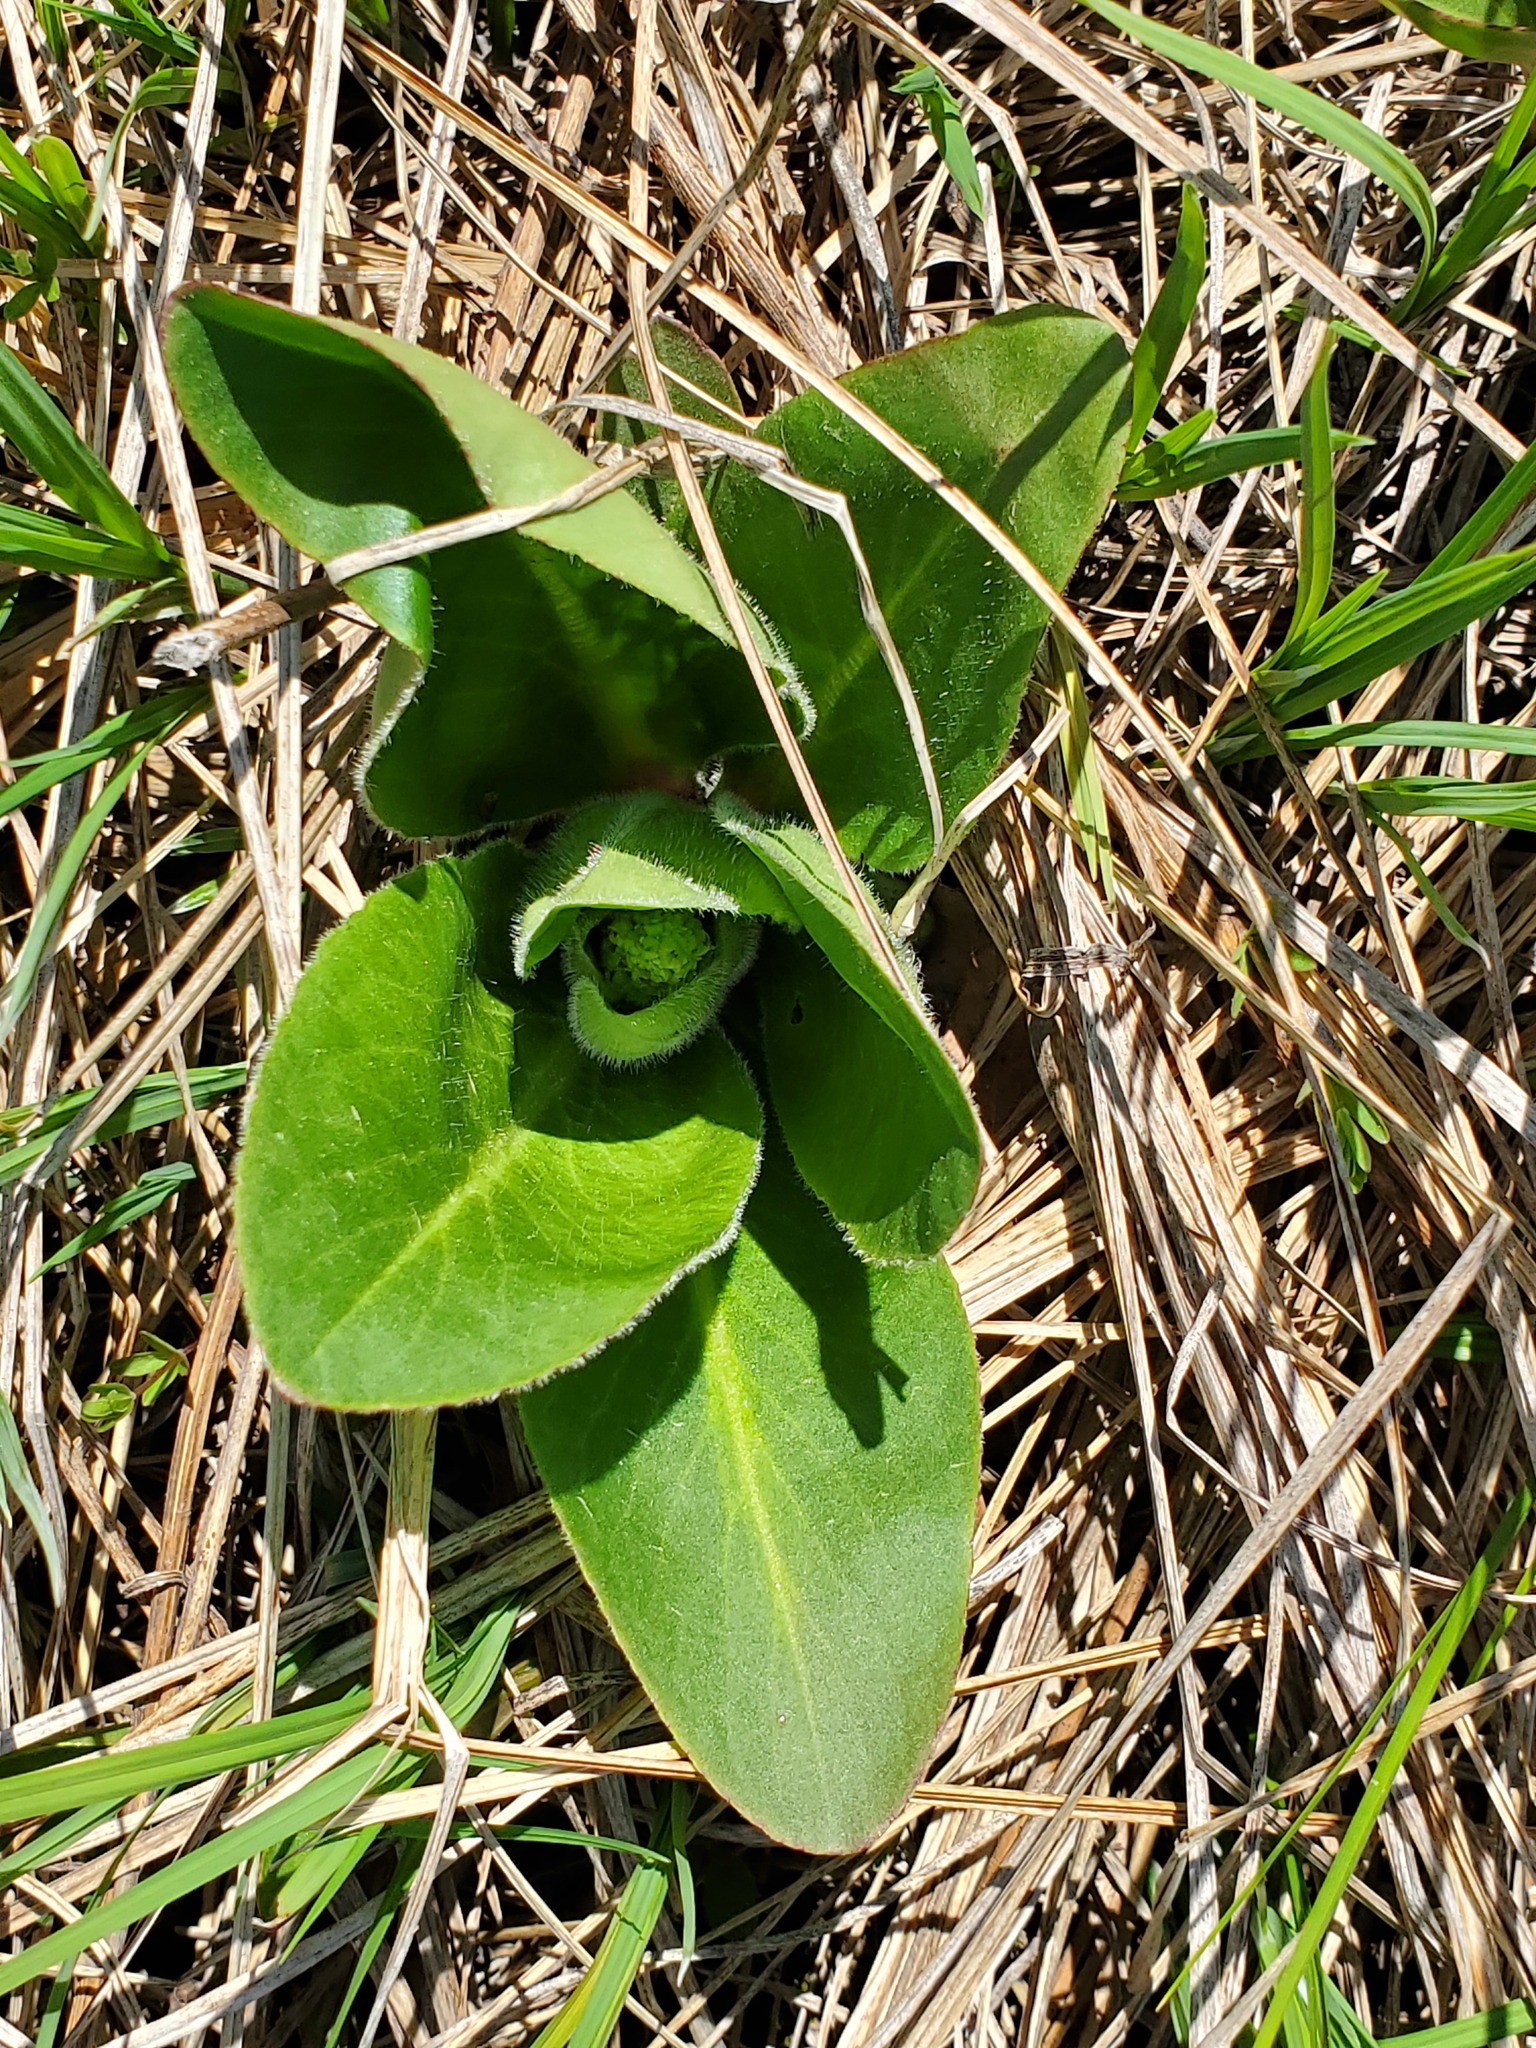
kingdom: Plantae
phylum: Tracheophyta
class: Magnoliopsida
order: Saxifragales
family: Saxifragaceae
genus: Micranthes
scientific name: Micranthes pensylvanica
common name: Marsh saxifrage
